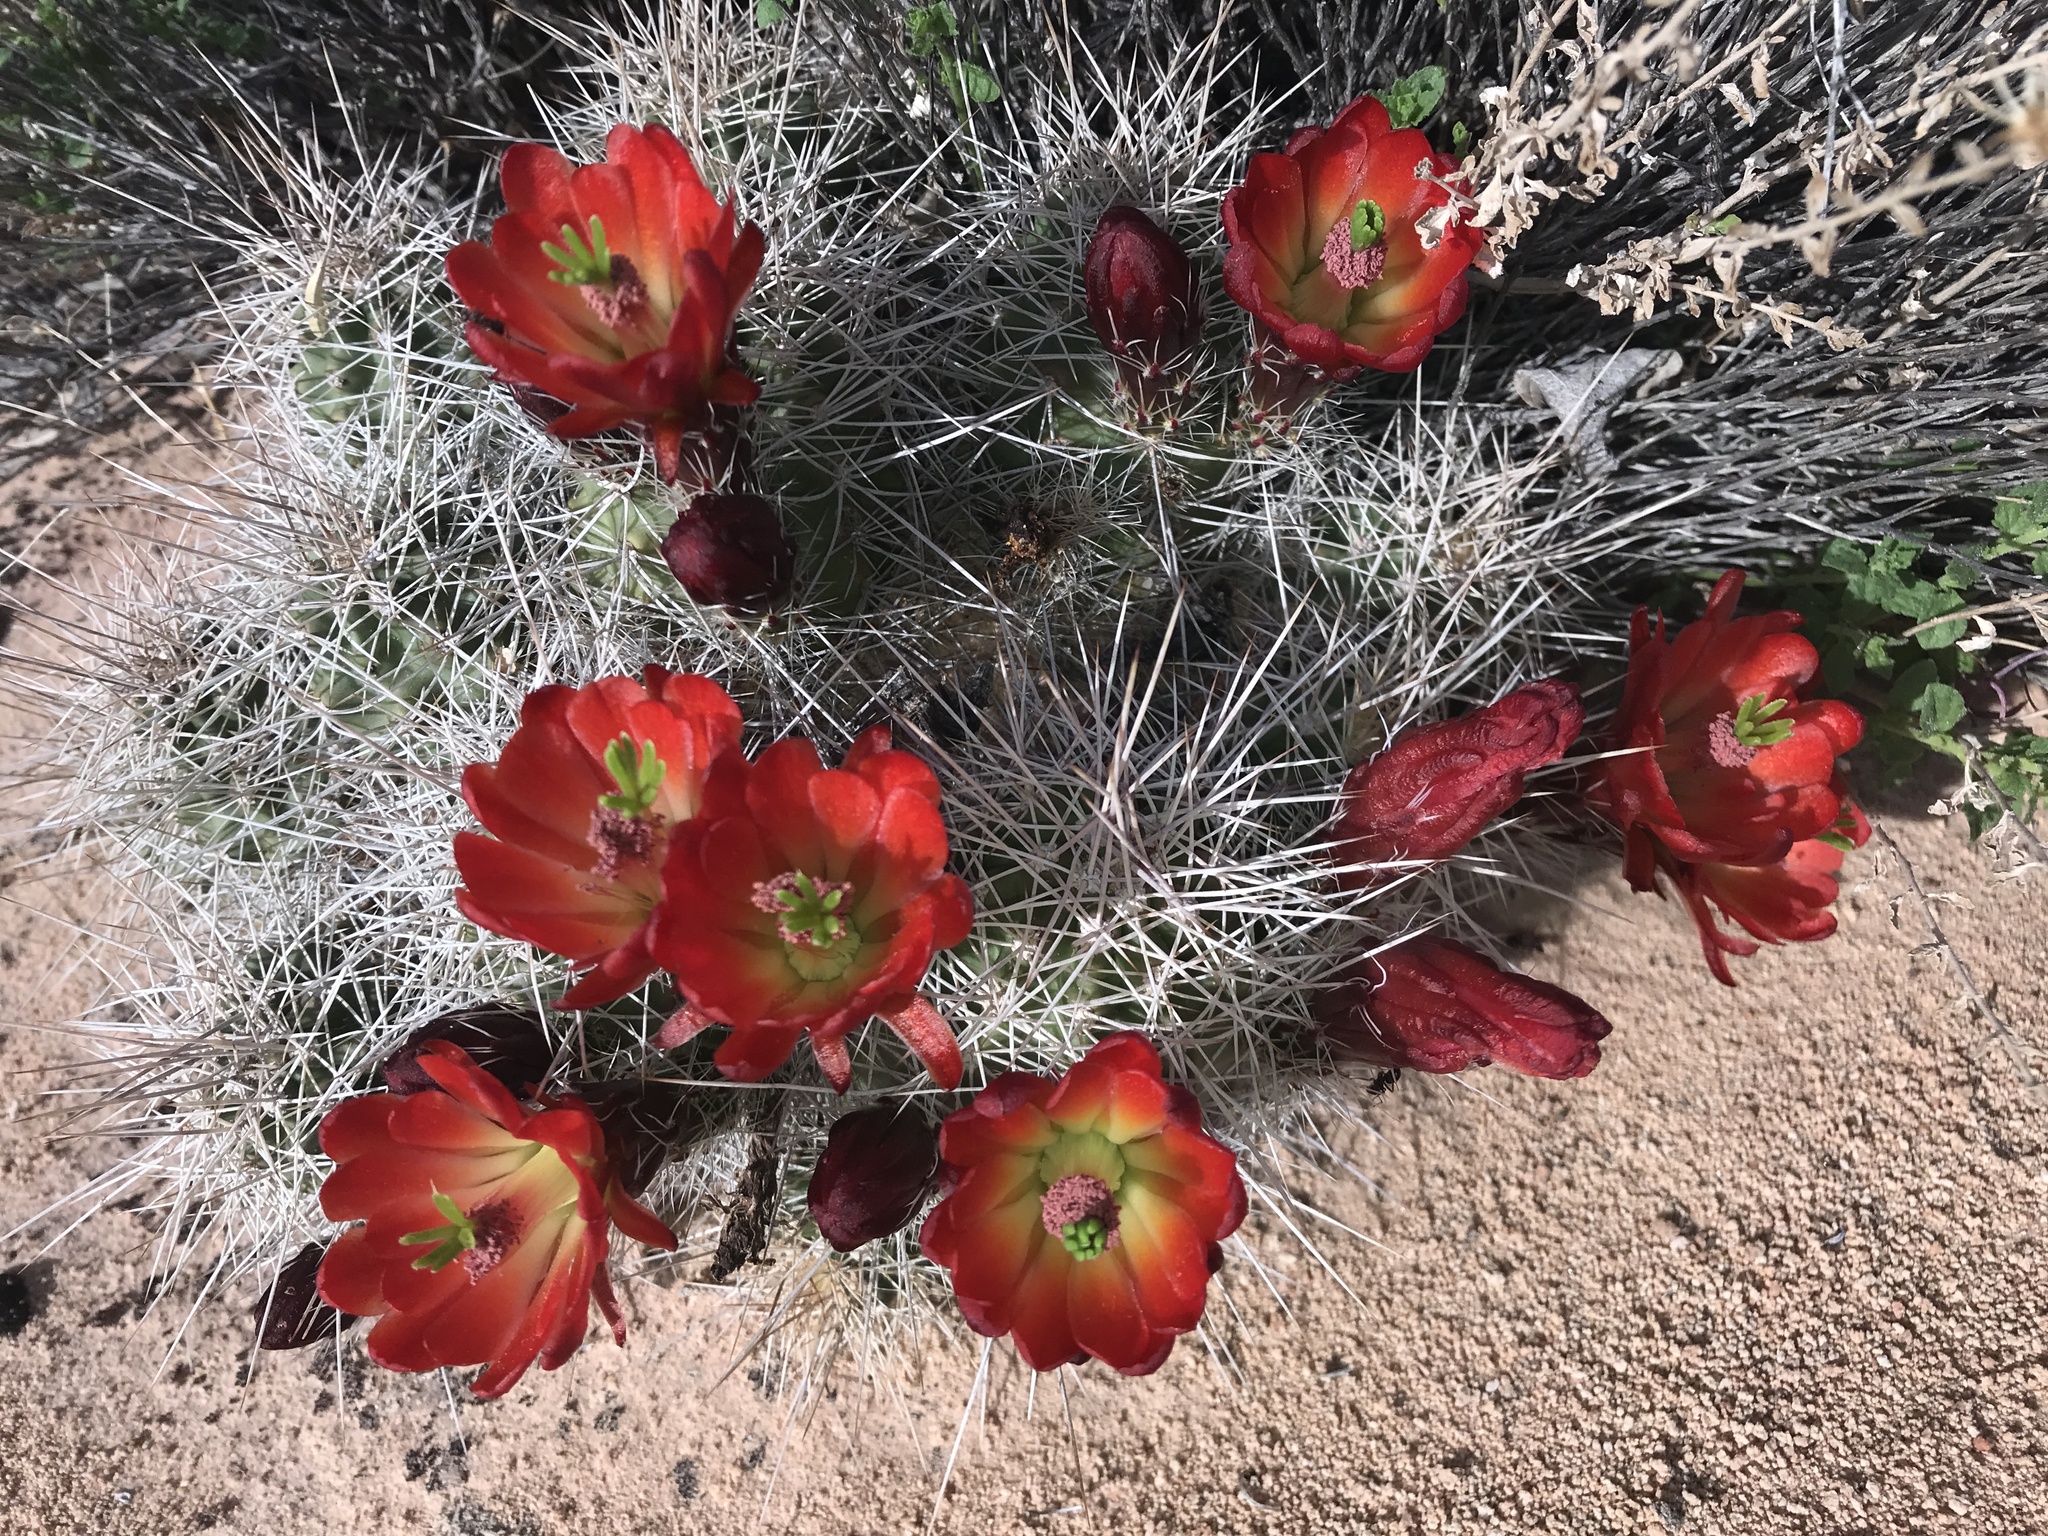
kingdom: Plantae
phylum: Tracheophyta
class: Magnoliopsida
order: Caryophyllales
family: Cactaceae
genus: Echinocereus
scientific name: Echinocereus triglochidiatus
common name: Claretcup hedgehog
